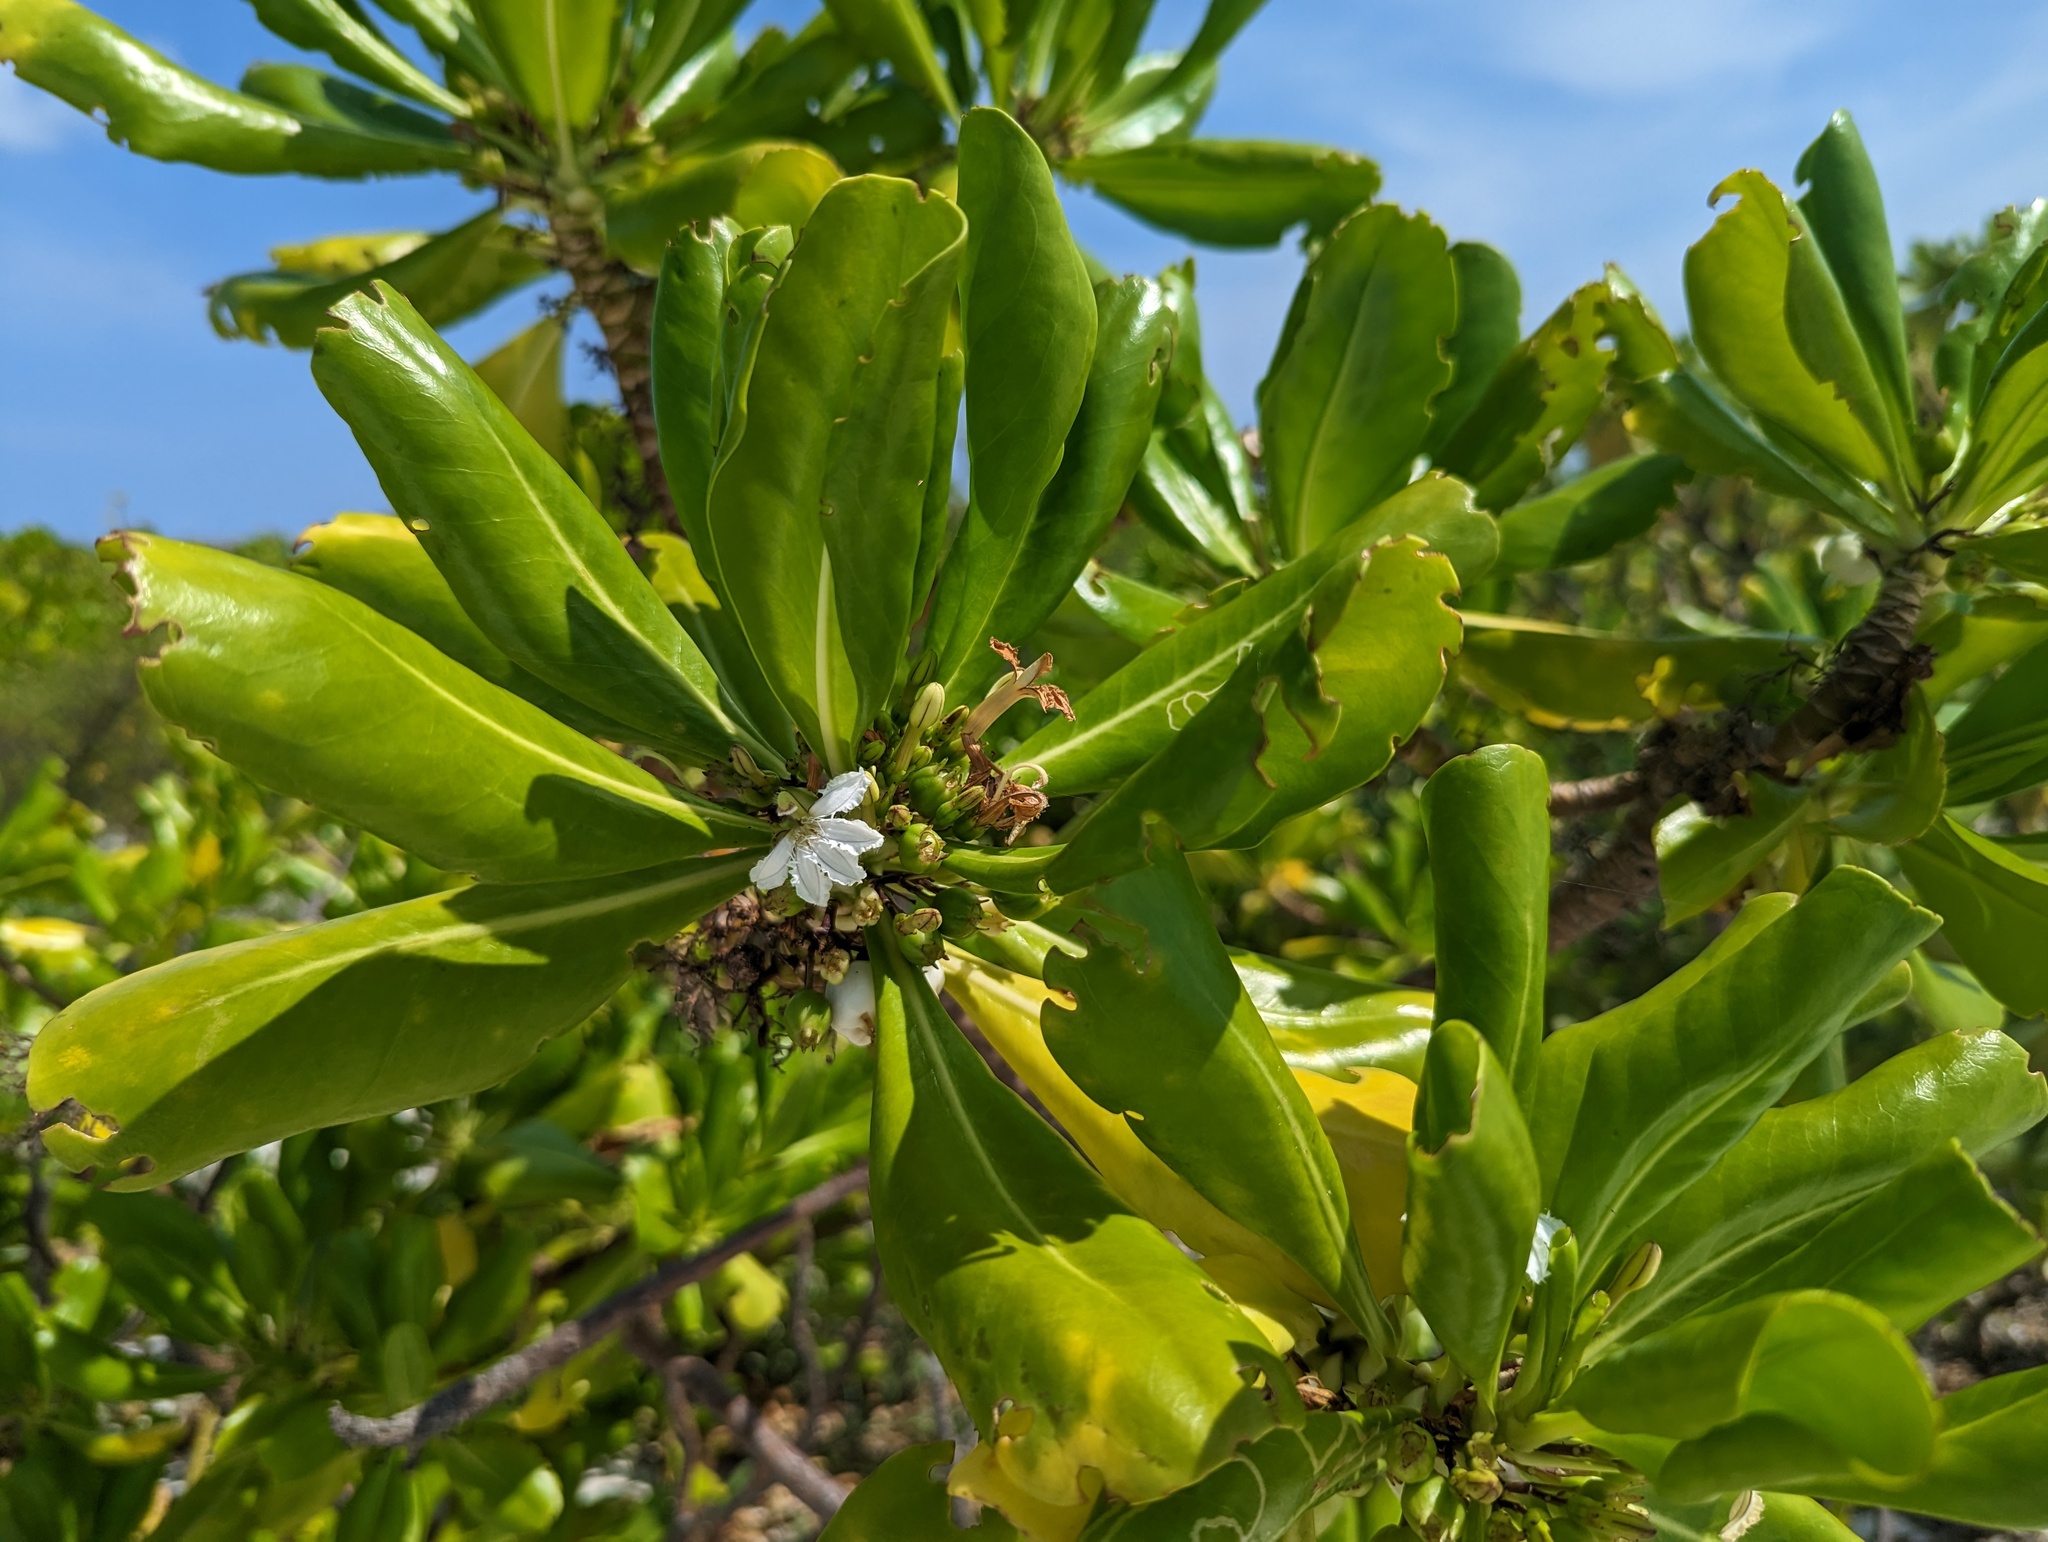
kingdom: Plantae
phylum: Tracheophyta
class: Magnoliopsida
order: Asterales
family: Goodeniaceae
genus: Scaevola
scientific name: Scaevola taccada
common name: Sea lettucetree
